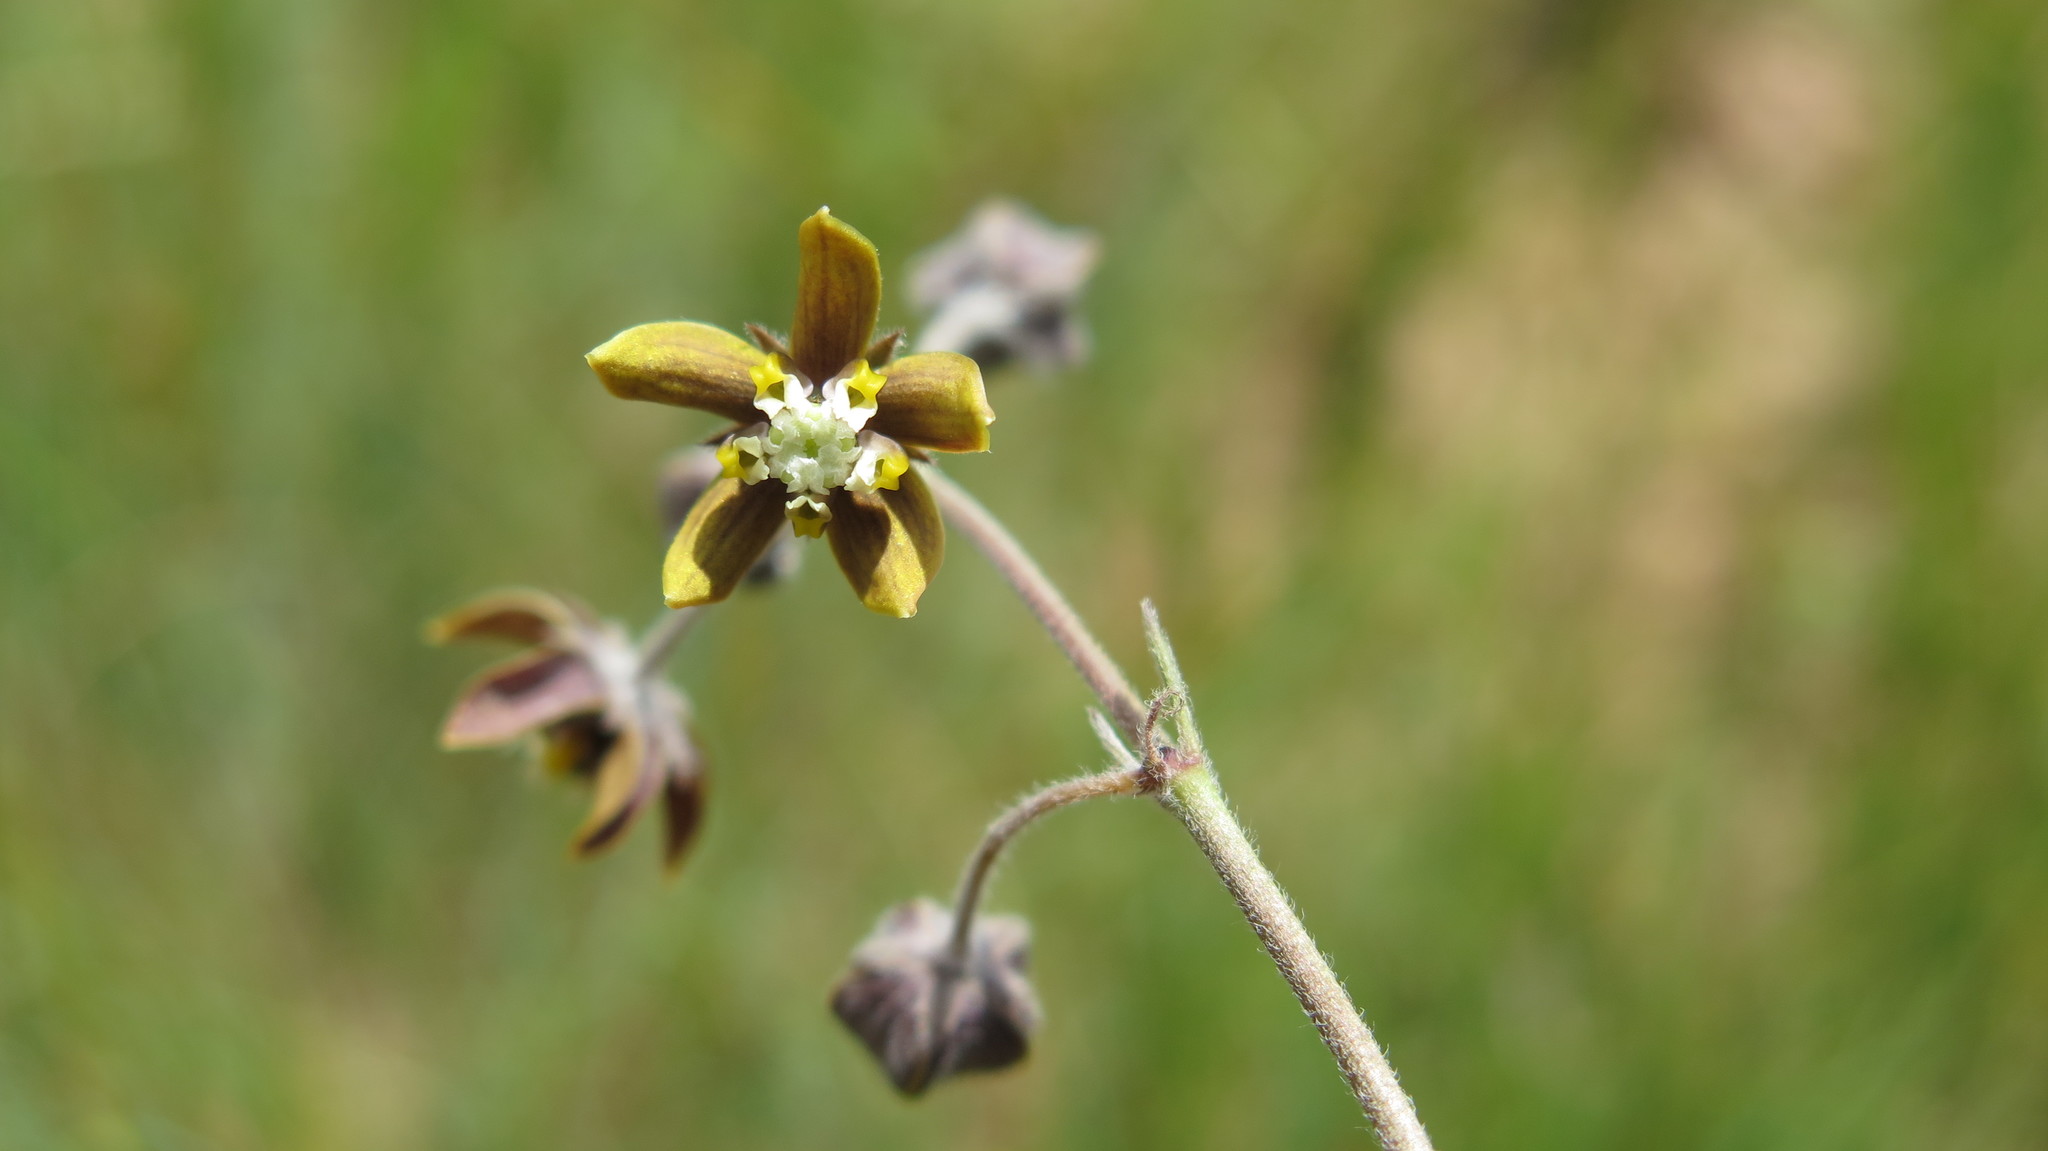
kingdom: Plantae
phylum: Tracheophyta
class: Magnoliopsida
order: Gentianales
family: Apocynaceae
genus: Aspidonepsis
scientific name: Aspidonepsis reenensis
